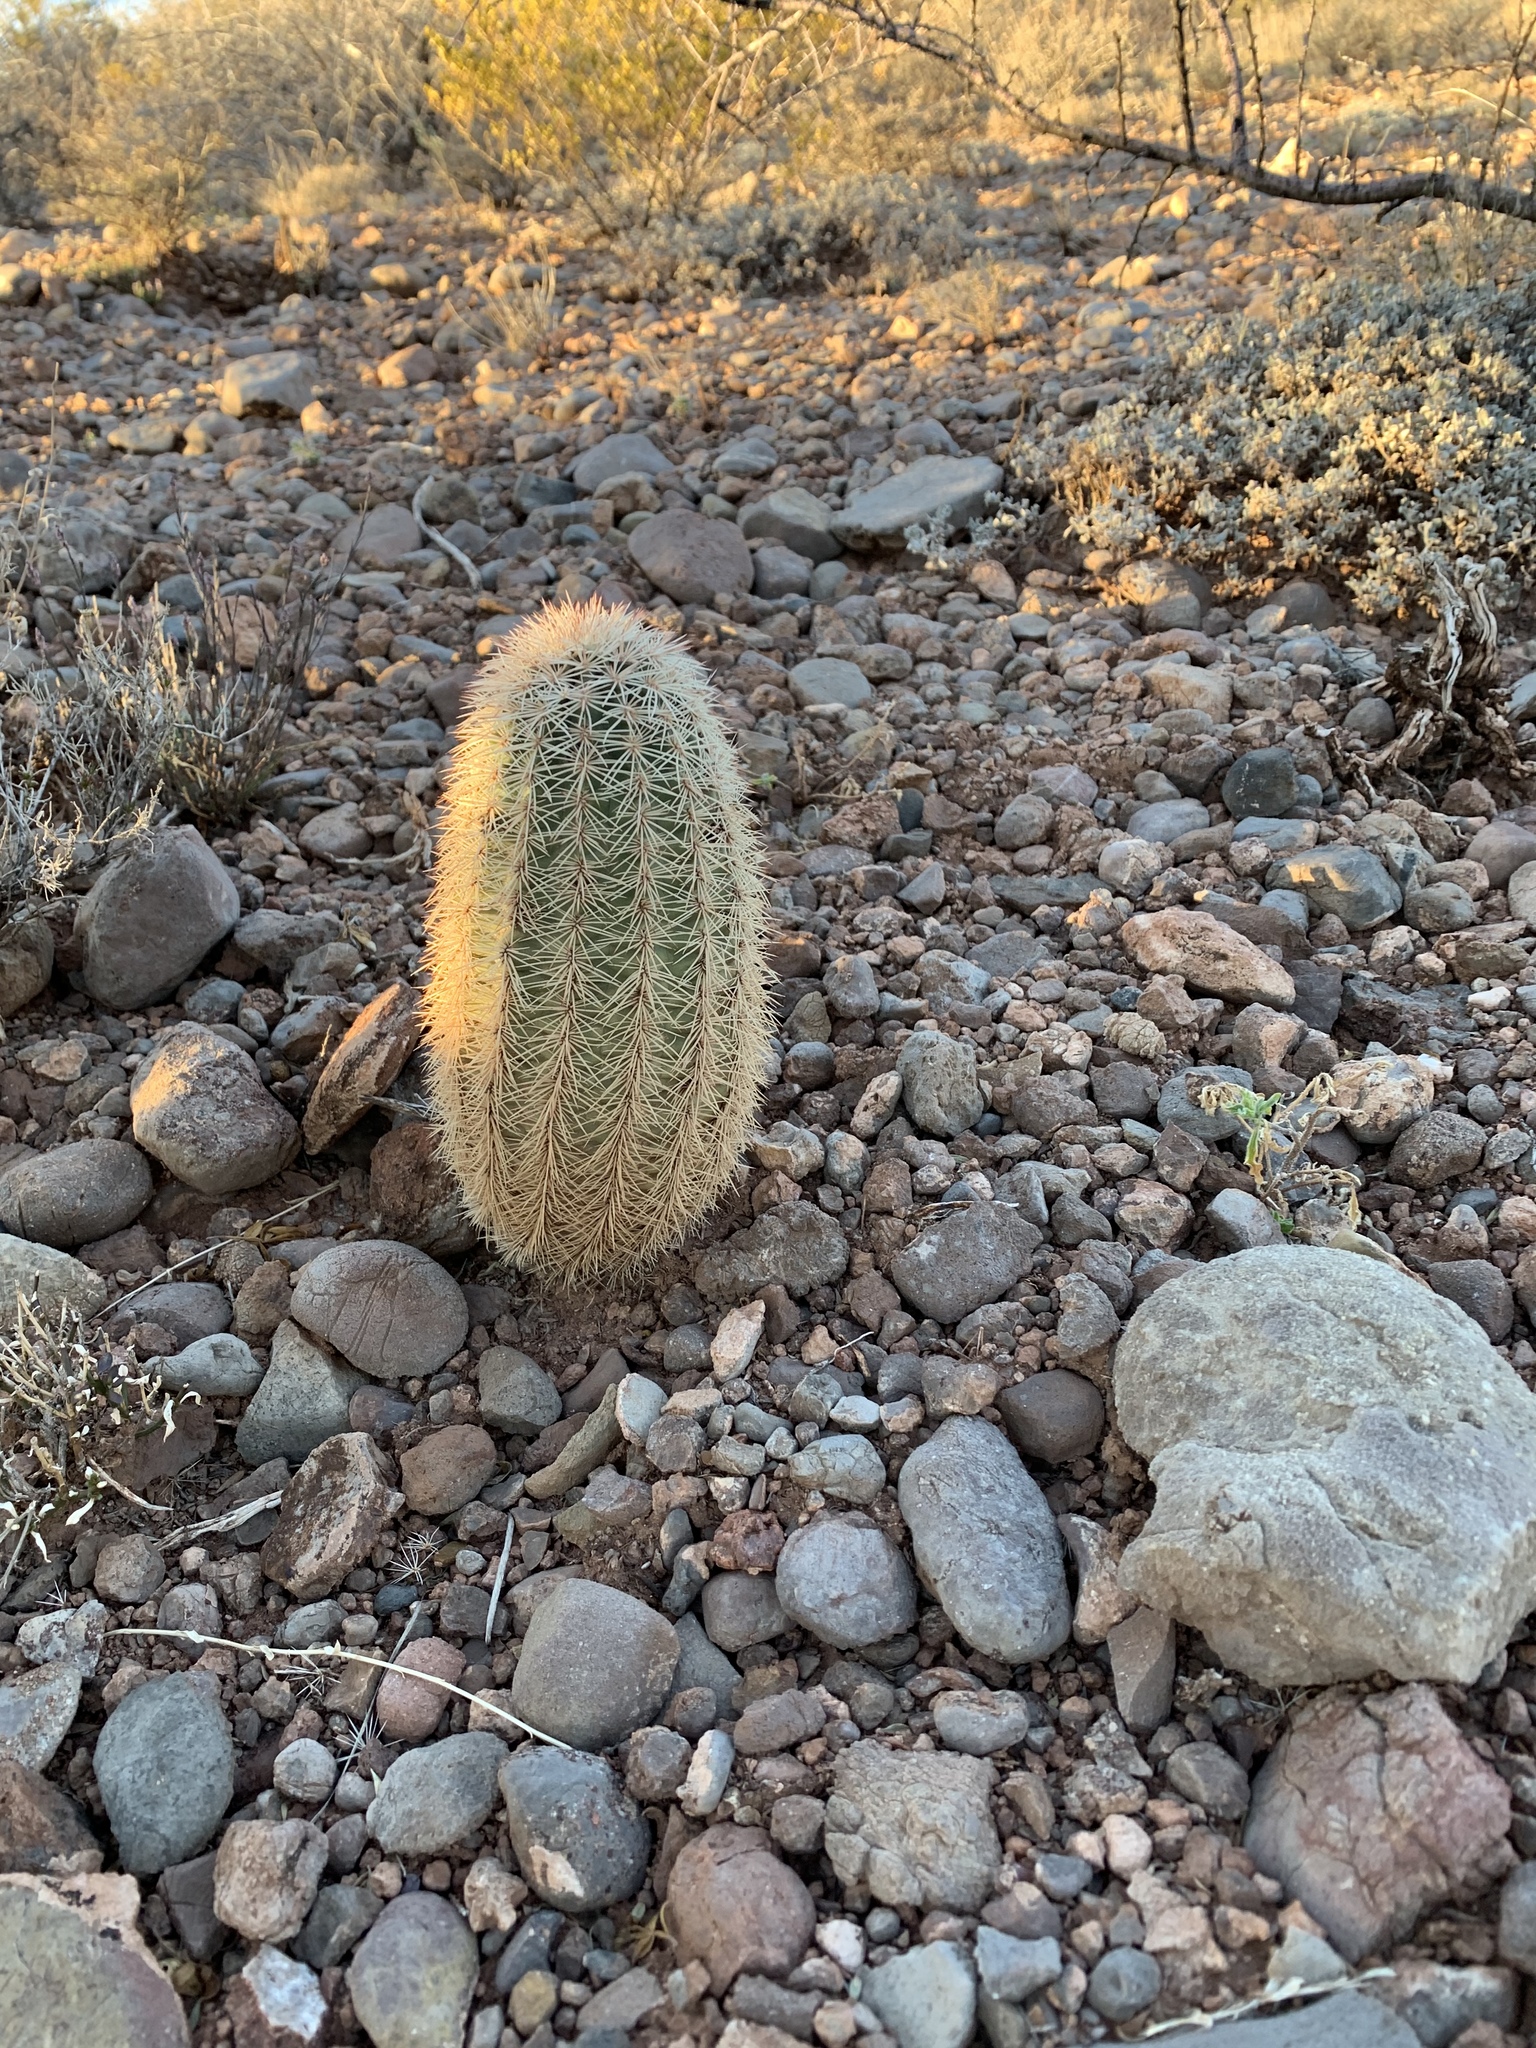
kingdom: Plantae
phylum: Tracheophyta
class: Magnoliopsida
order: Caryophyllales
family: Cactaceae
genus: Echinocereus
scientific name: Echinocereus dasyacanthus
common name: Spiny hedgehog cactus
